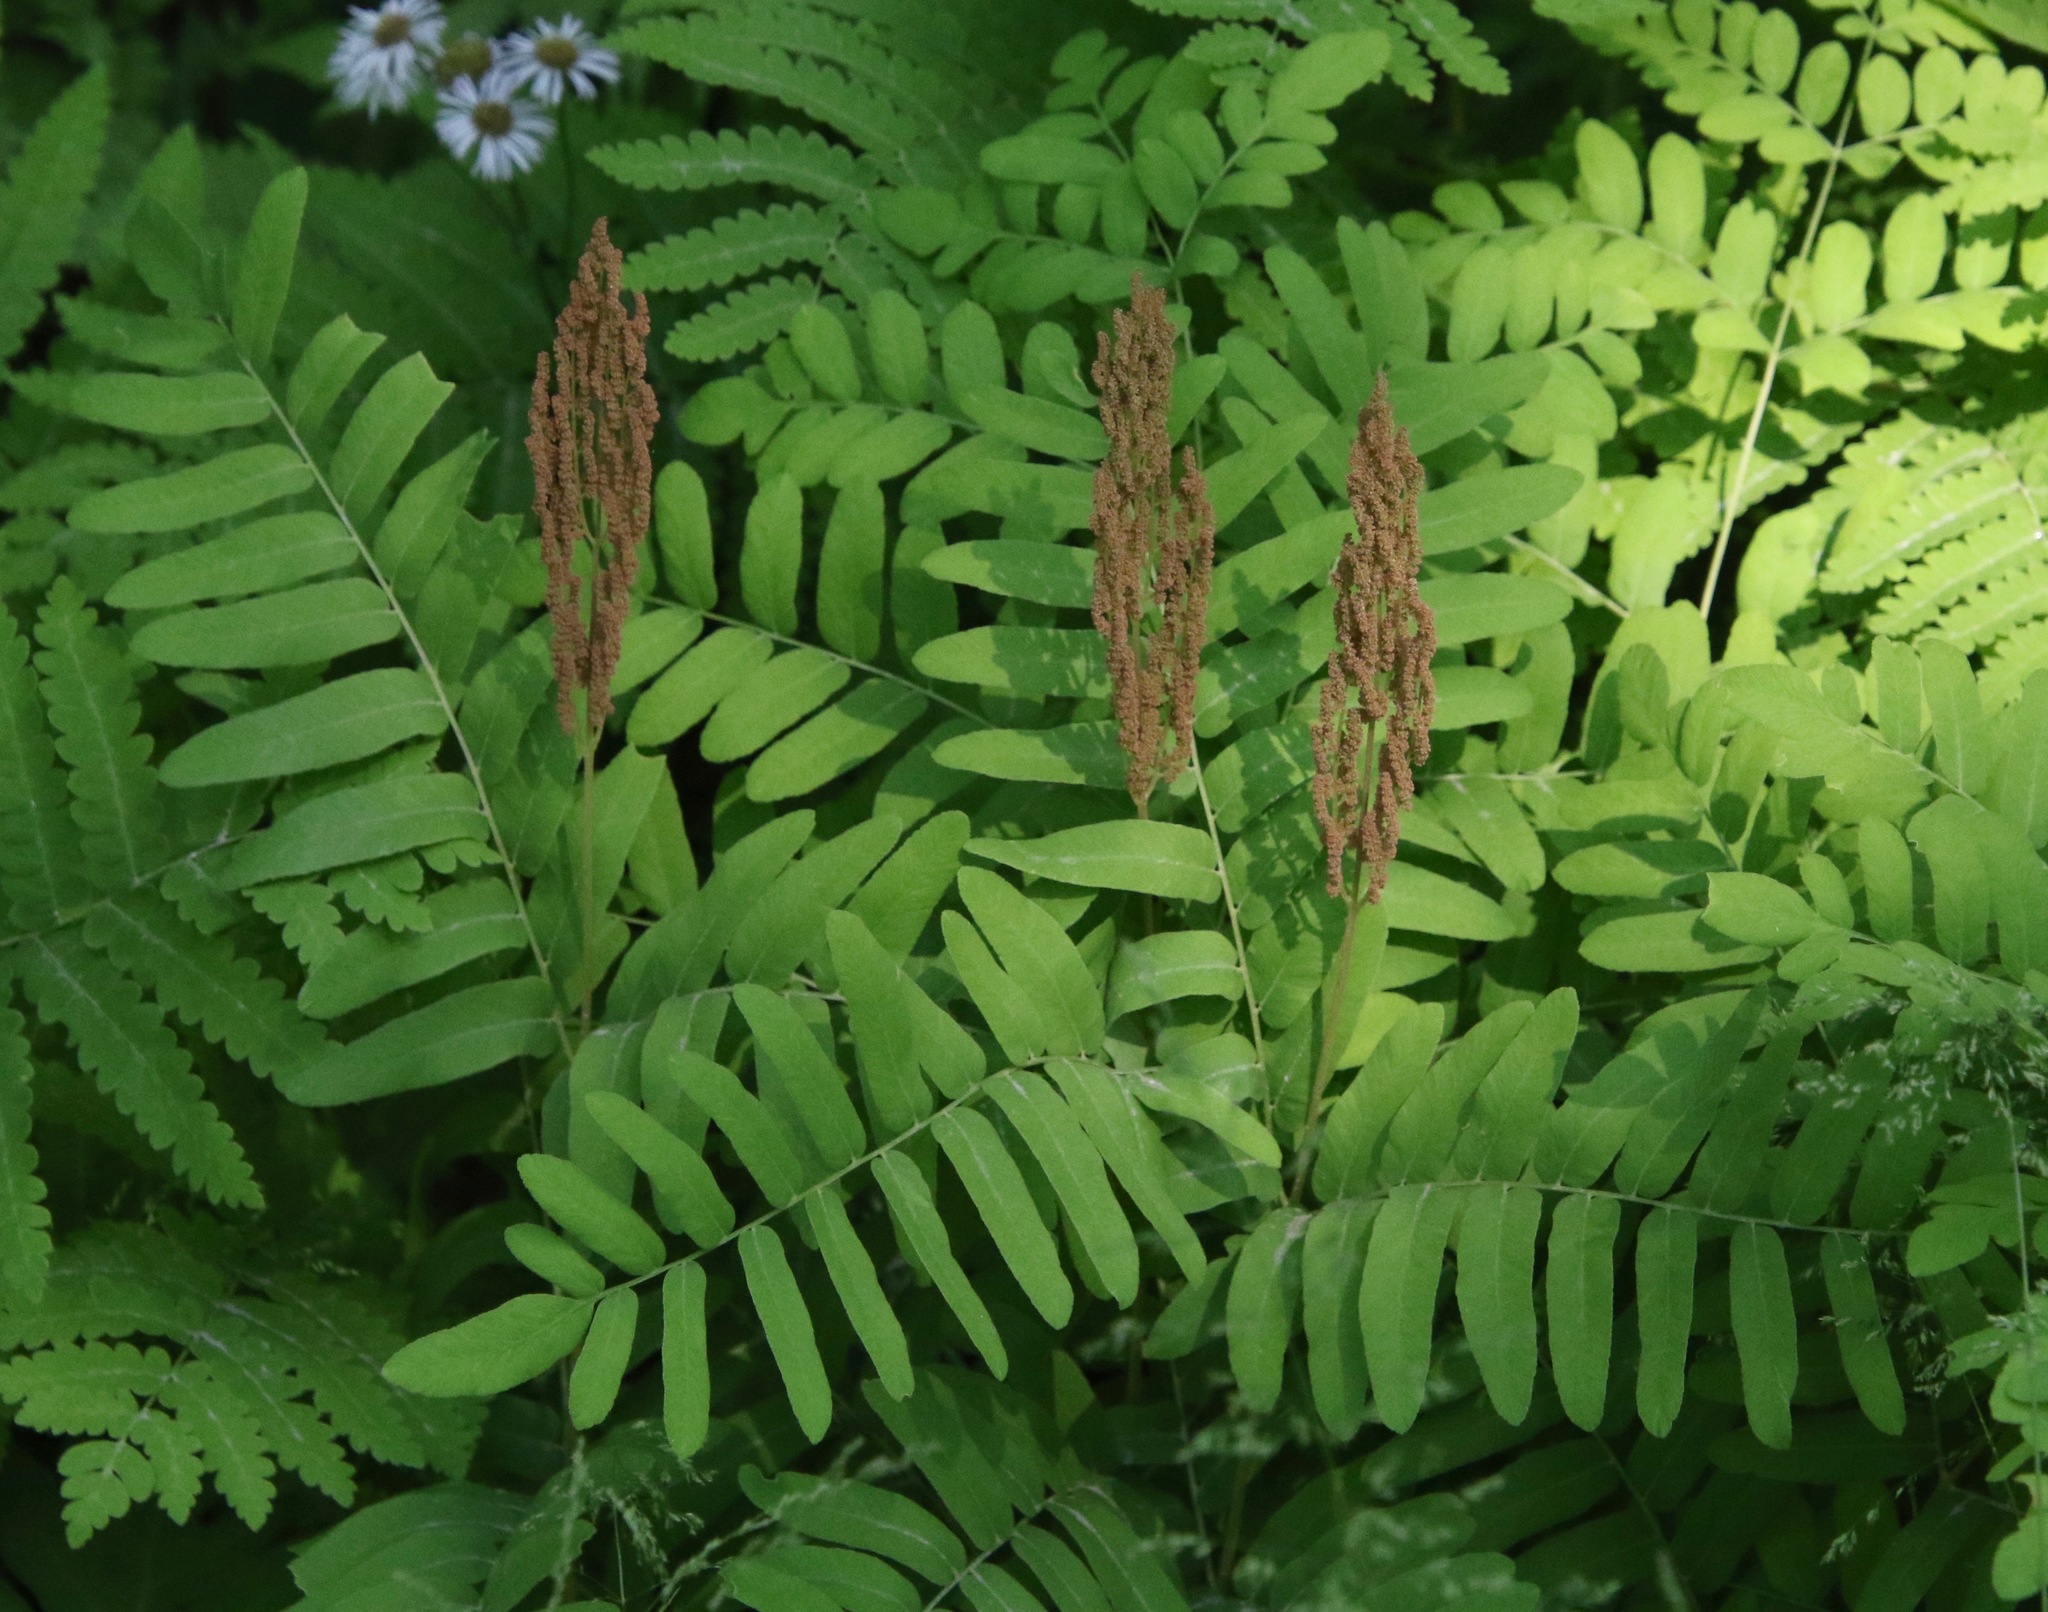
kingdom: Plantae
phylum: Tracheophyta
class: Polypodiopsida
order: Osmundales
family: Osmundaceae
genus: Osmunda
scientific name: Osmunda spectabilis
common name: American royal fern
